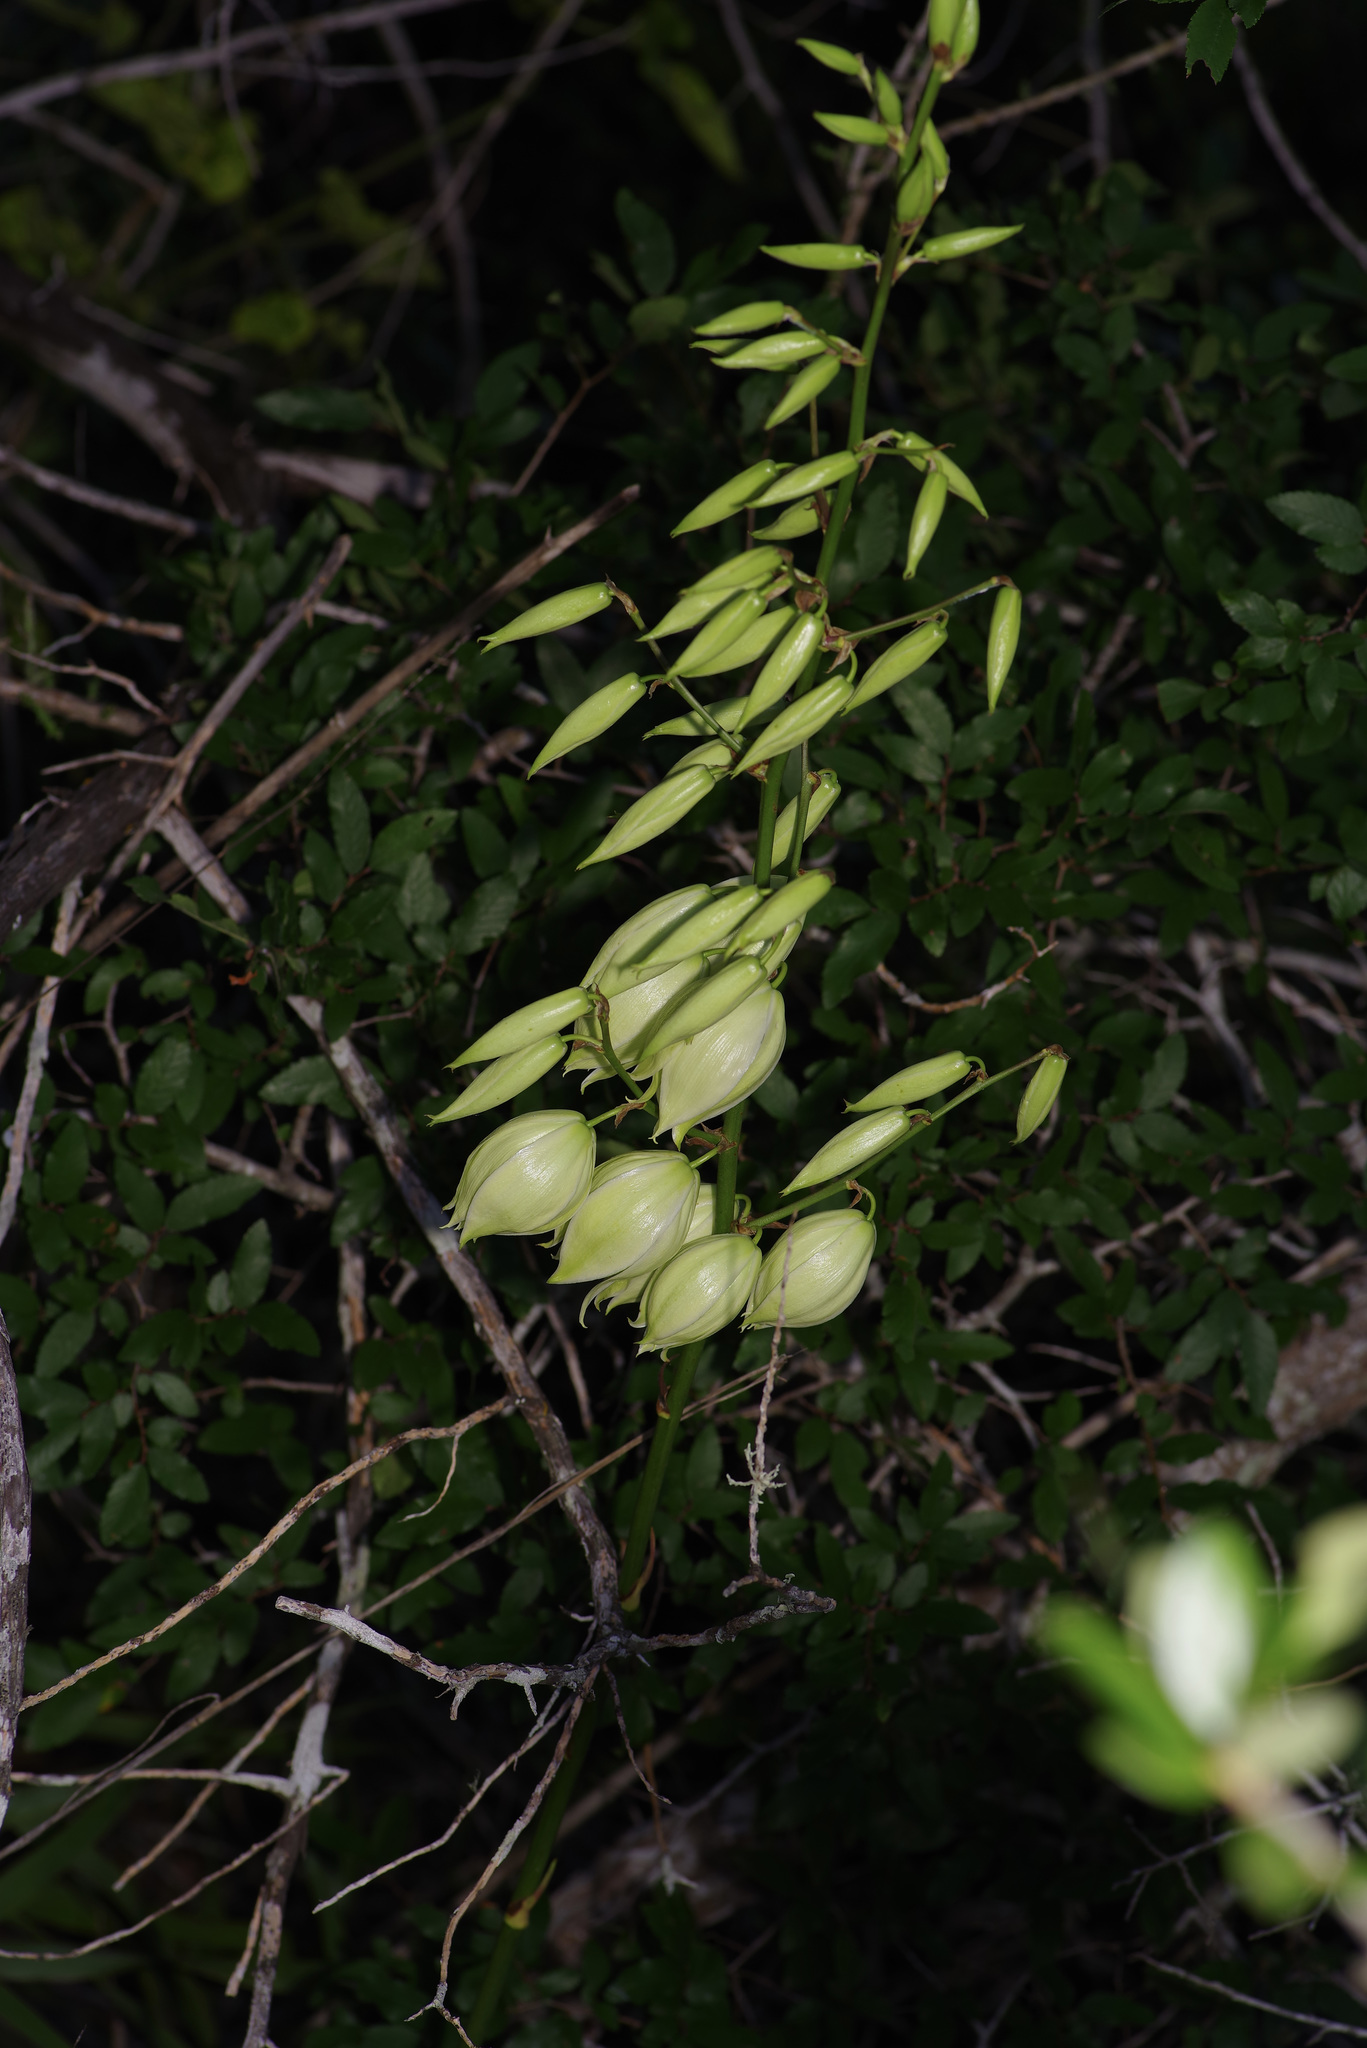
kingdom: Plantae
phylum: Tracheophyta
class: Liliopsida
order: Asparagales
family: Asparagaceae
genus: Yucca
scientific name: Yucca rupicola
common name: Twisted-leaf spanish-dagger
